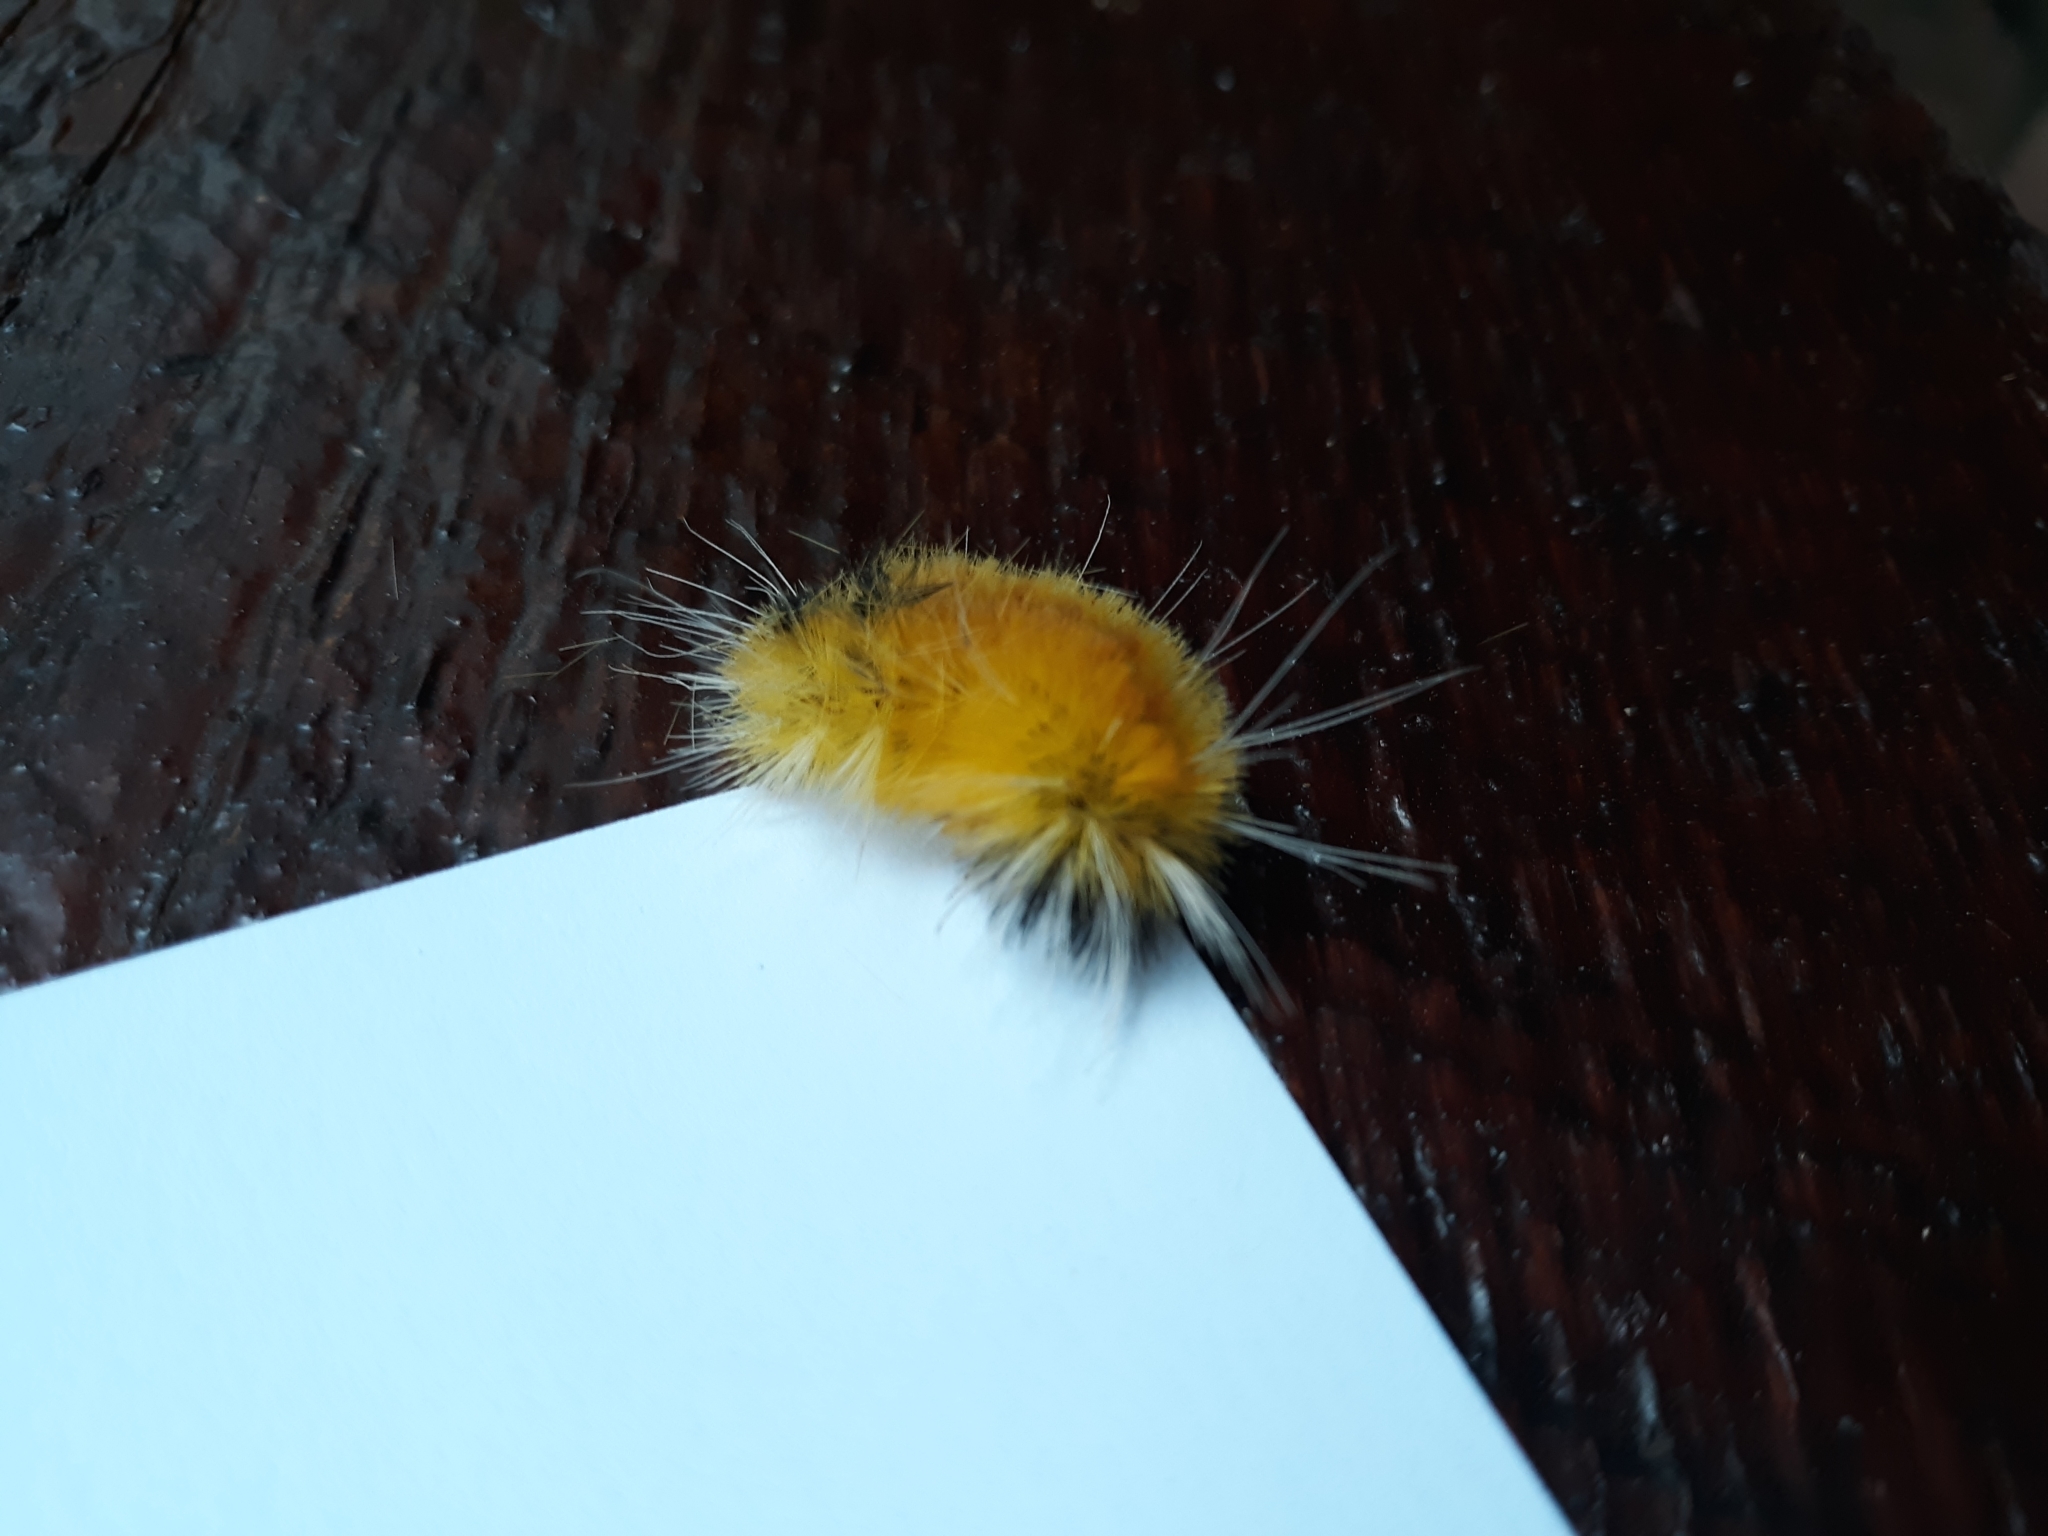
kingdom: Animalia
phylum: Arthropoda
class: Insecta
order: Lepidoptera
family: Erebidae
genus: Lophocampa
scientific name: Lophocampa maculata
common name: Spotted tussock moth
